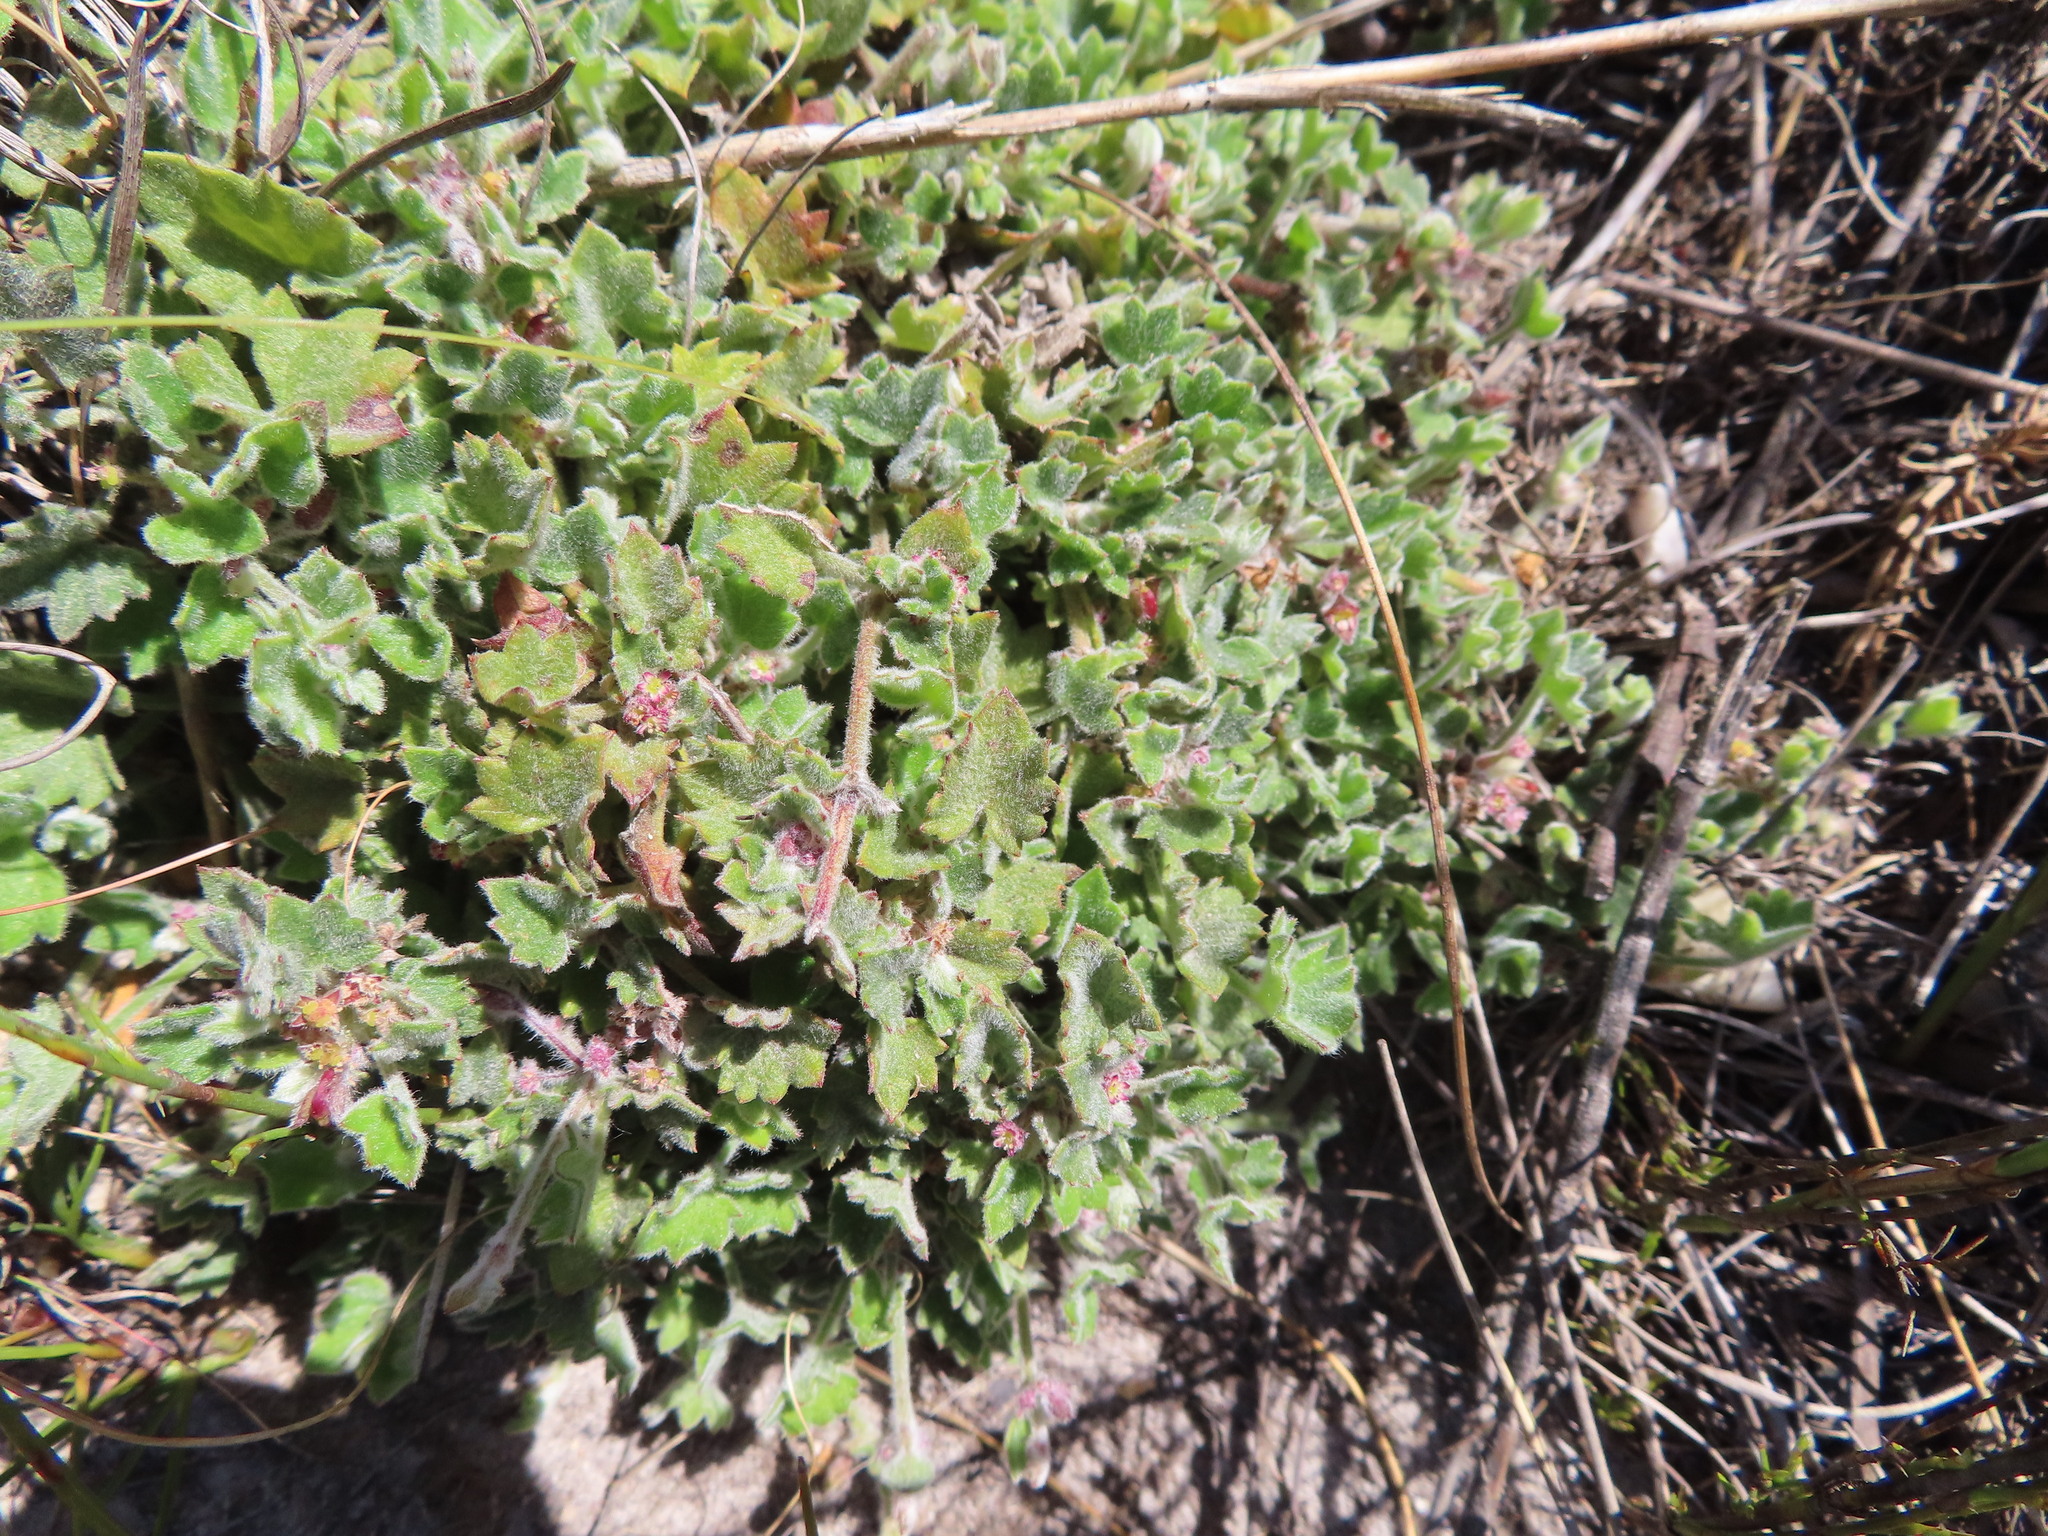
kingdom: Plantae
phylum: Tracheophyta
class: Magnoliopsida
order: Apiales
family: Apiaceae
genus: Centella
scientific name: Centella macroda
